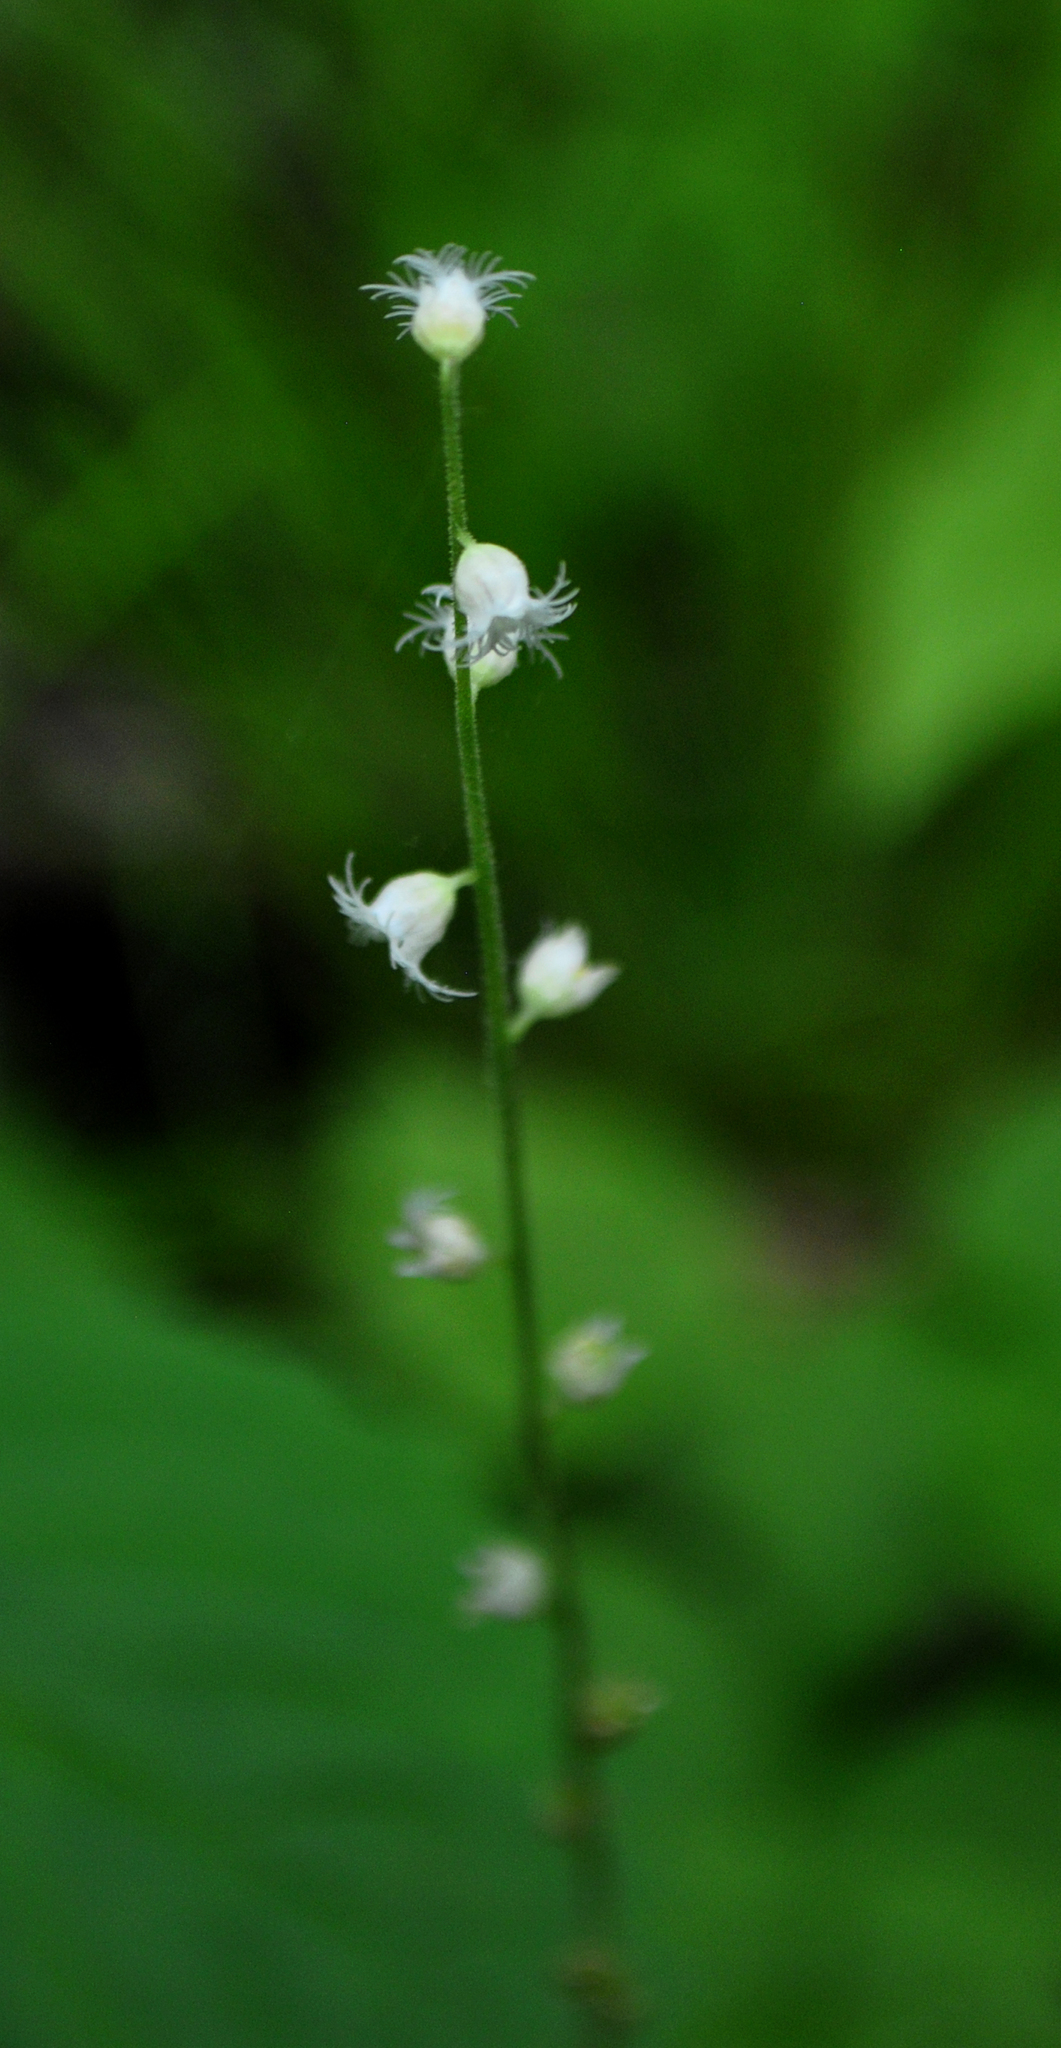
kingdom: Plantae
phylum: Tracheophyta
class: Magnoliopsida
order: Saxifragales
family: Saxifragaceae
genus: Mitella
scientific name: Mitella diphylla
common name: Coolwort
